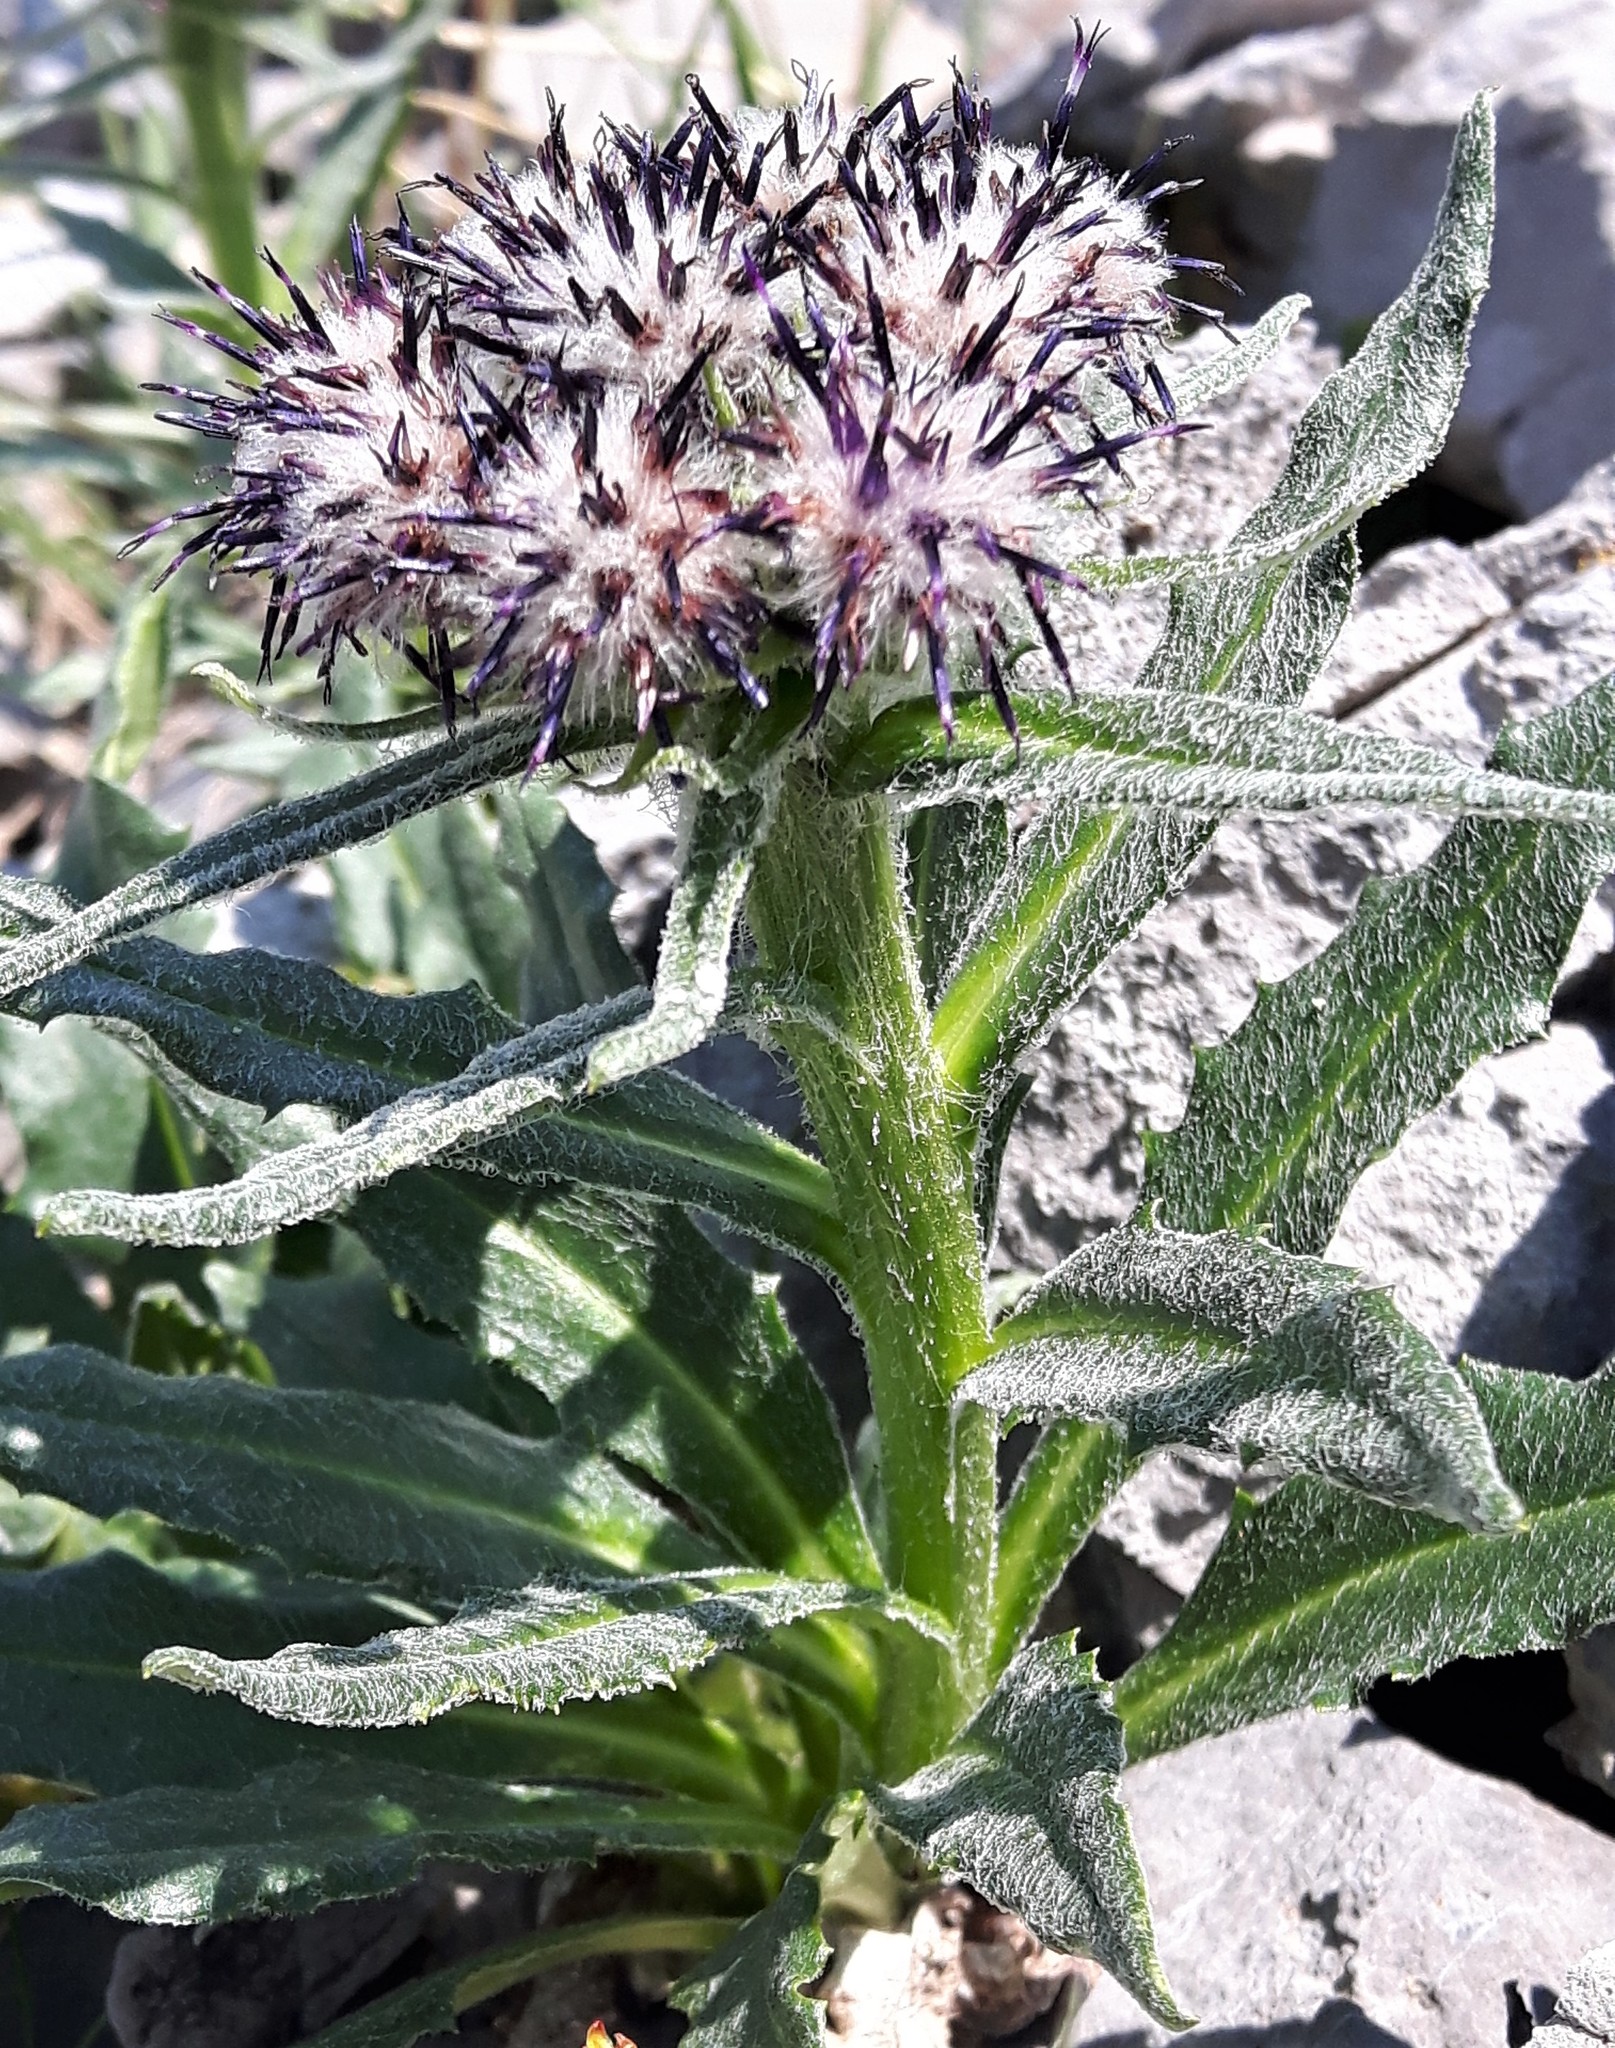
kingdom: Plantae
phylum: Tracheophyta
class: Magnoliopsida
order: Asterales
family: Asteraceae
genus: Saussurea
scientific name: Saussurea nuda
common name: Chaffless saw-wort
